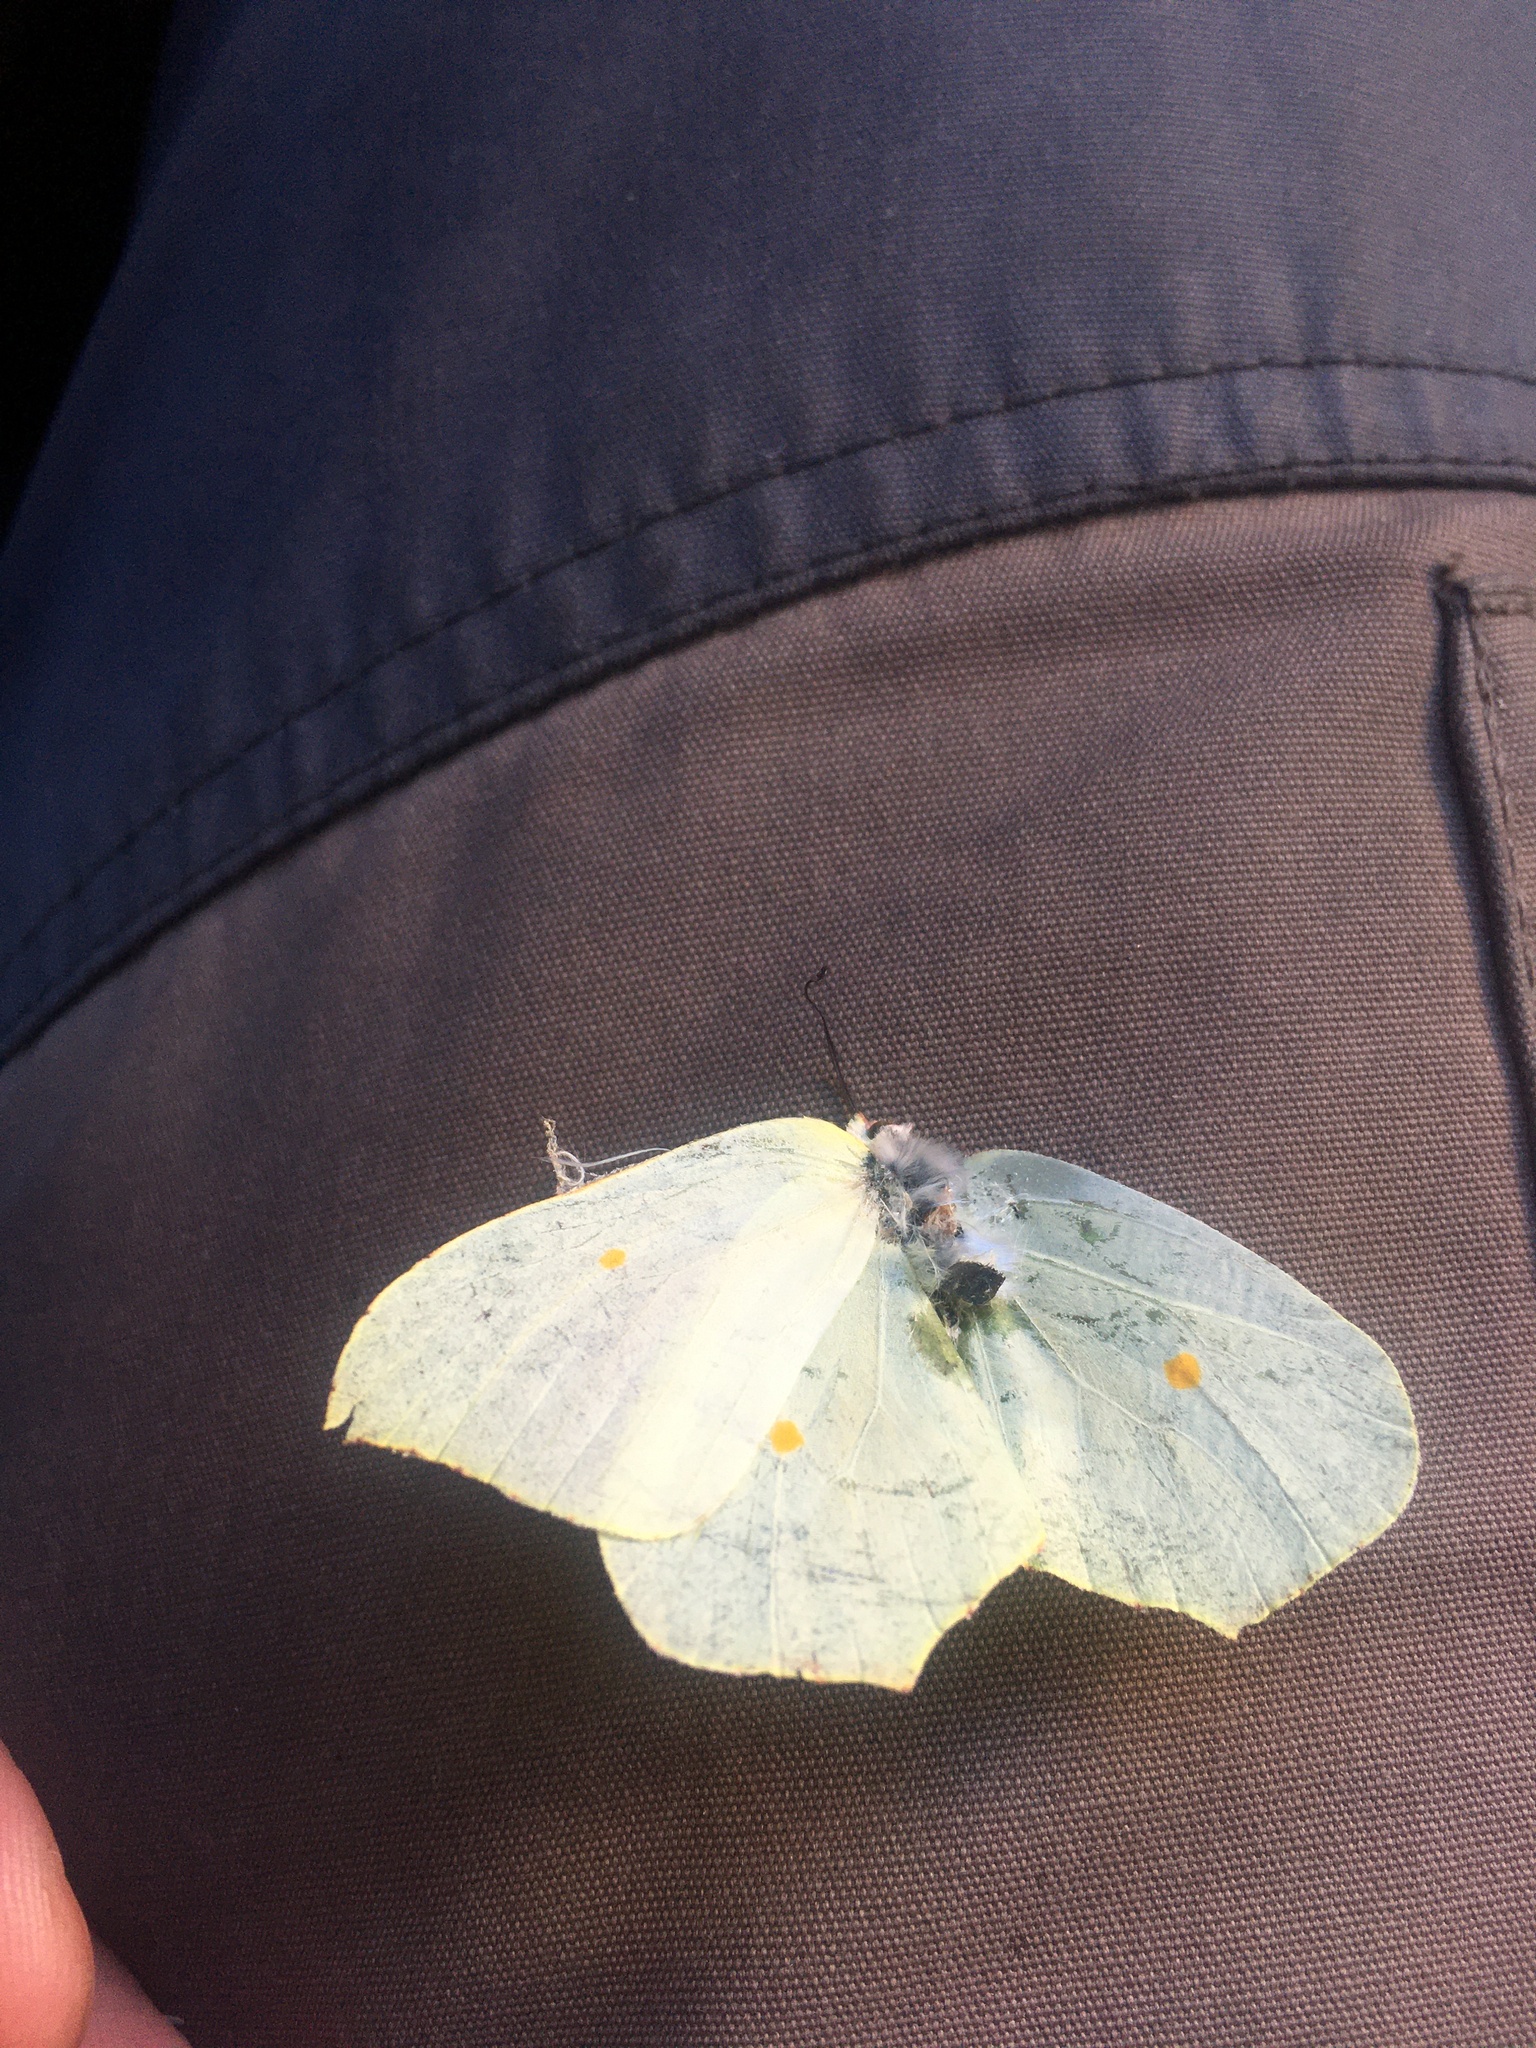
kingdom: Animalia
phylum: Arthropoda
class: Insecta
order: Lepidoptera
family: Pieridae
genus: Gonepteryx
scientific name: Gonepteryx rhamni
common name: Brimstone
